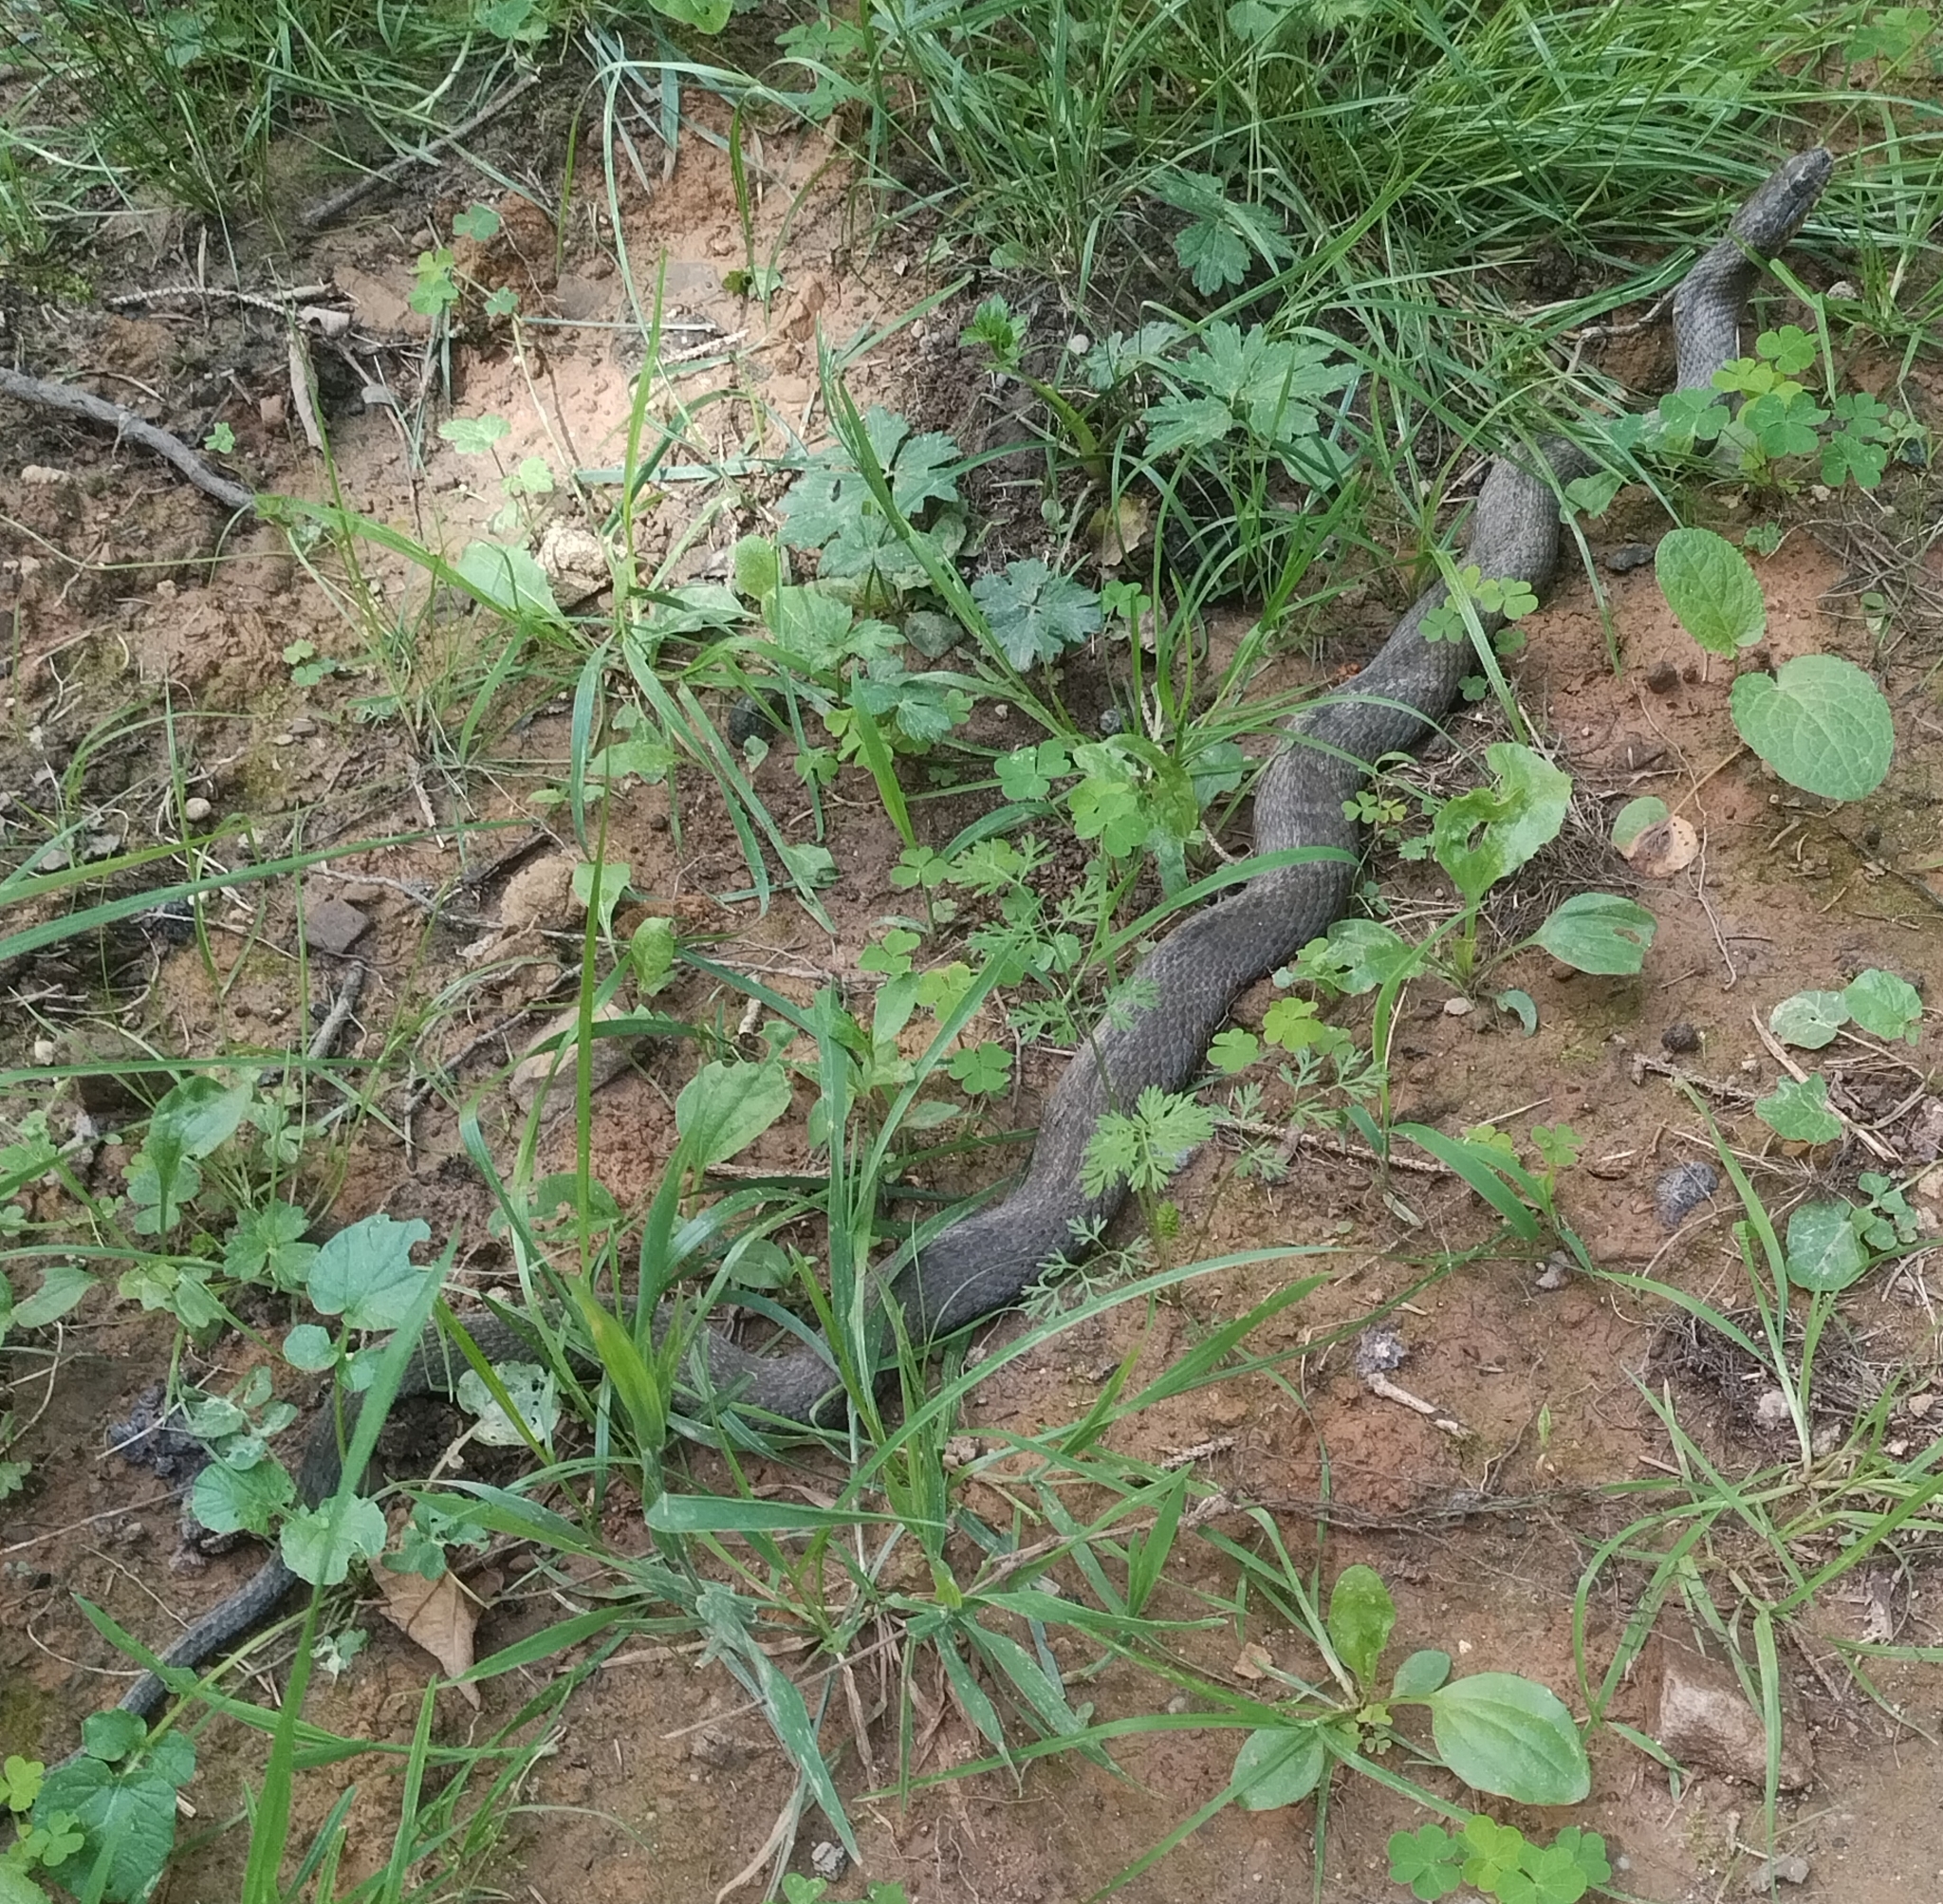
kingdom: Animalia
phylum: Chordata
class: Squamata
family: Colubridae
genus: Nerodia
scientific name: Nerodia sipedon
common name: Northern water snake
